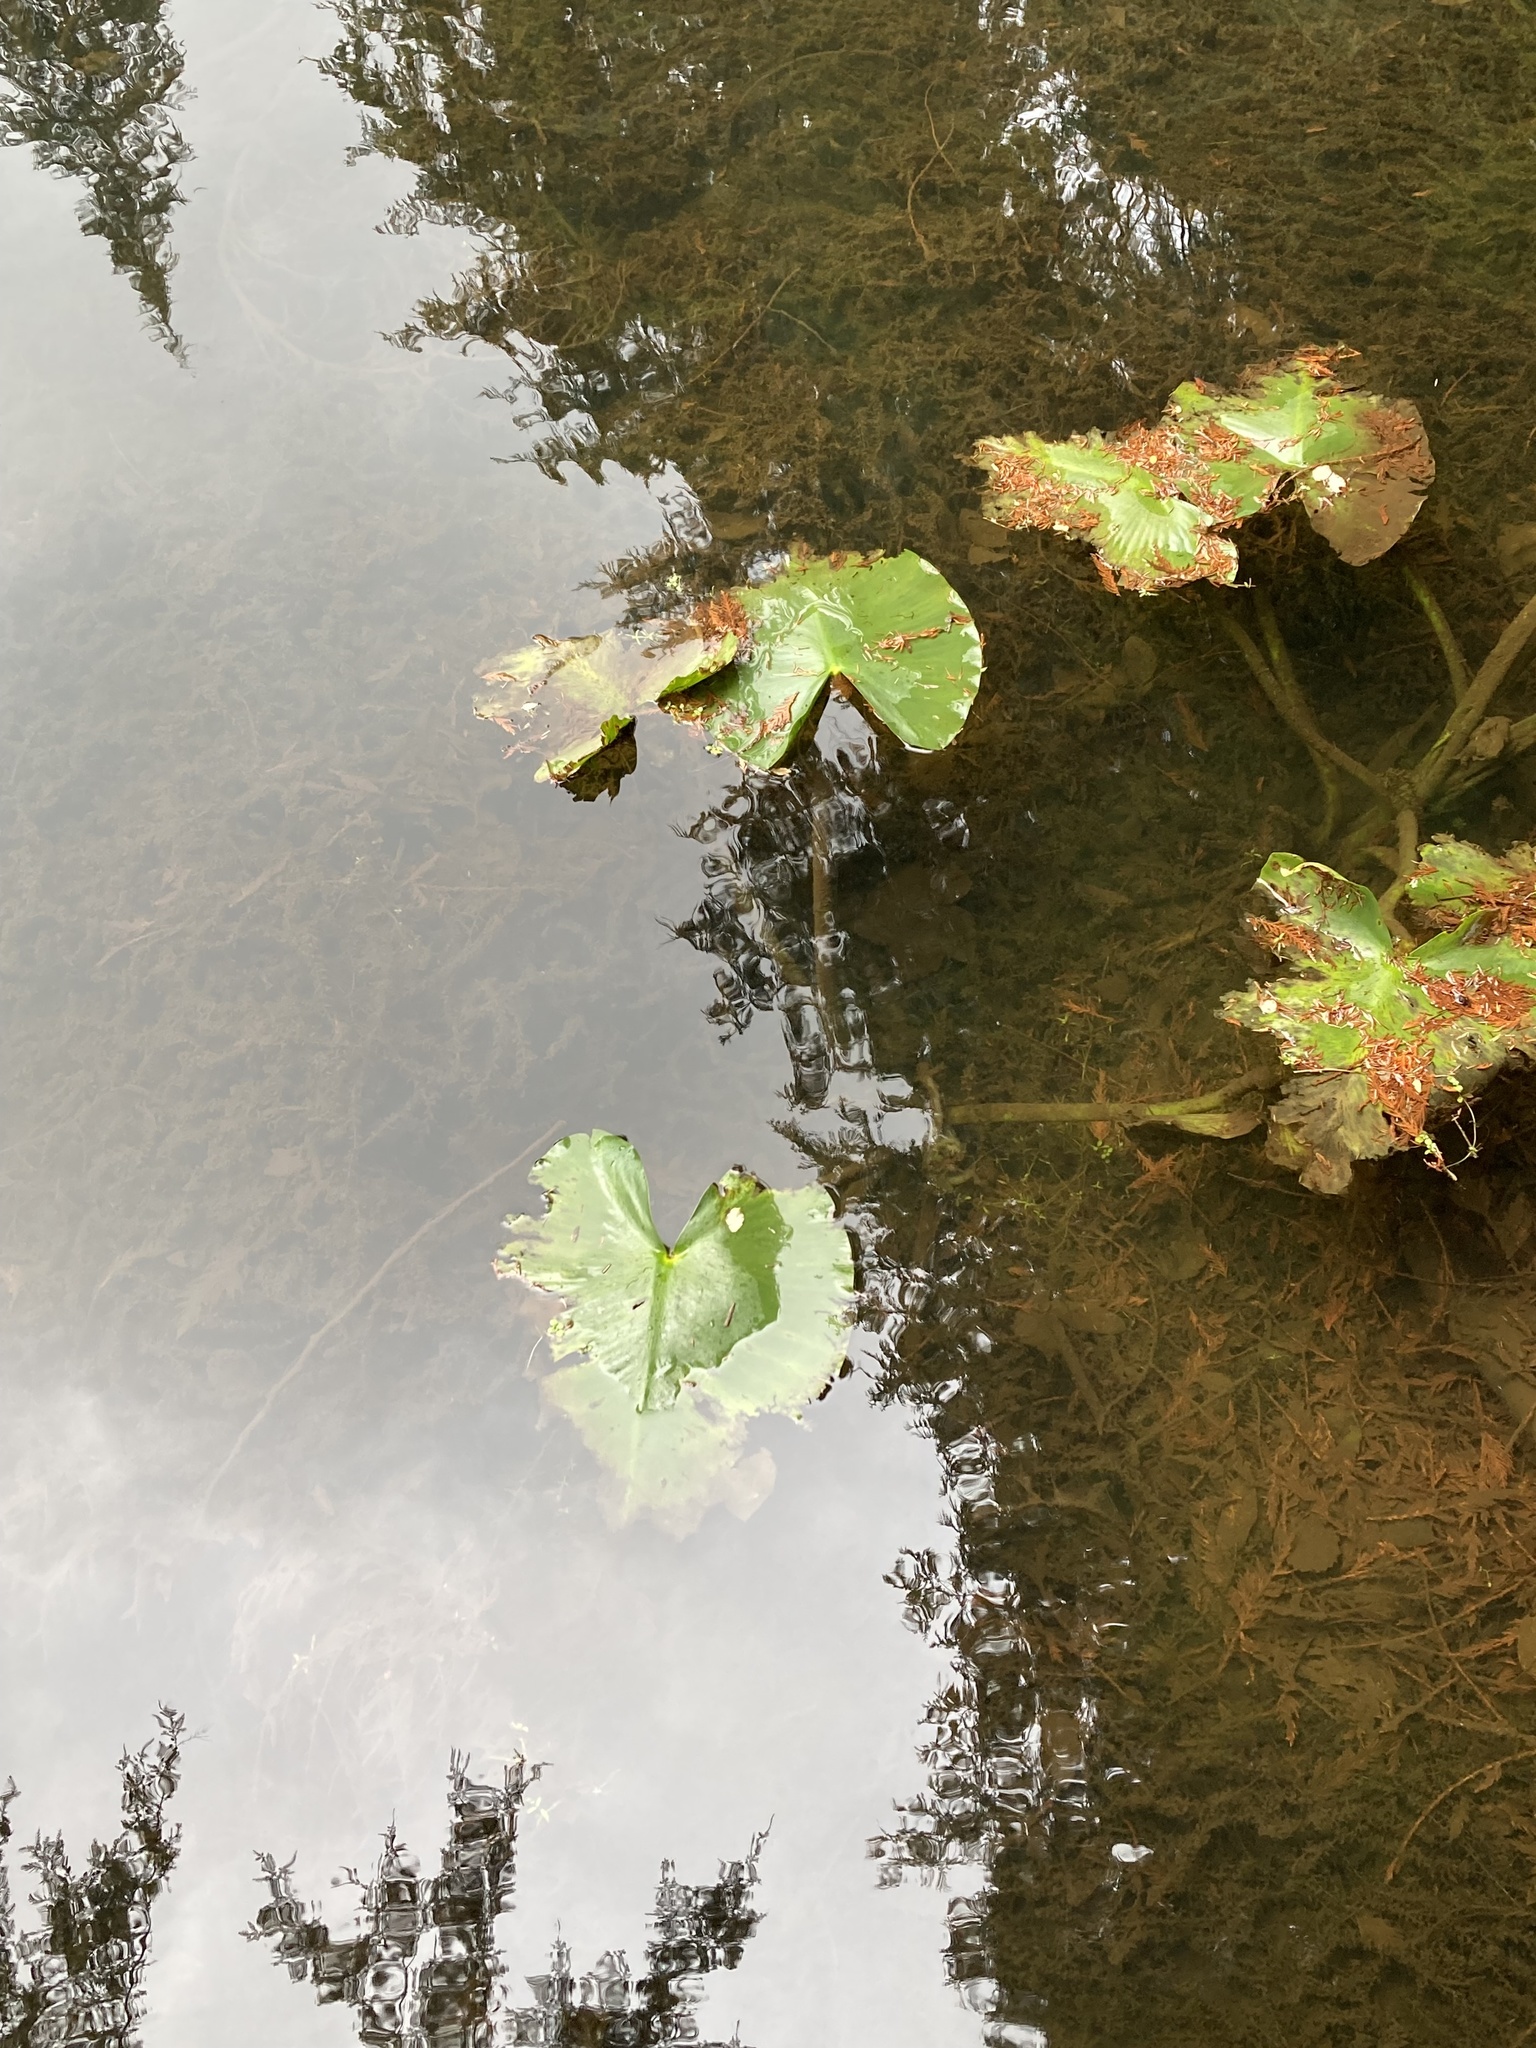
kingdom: Plantae
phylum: Tracheophyta
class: Magnoliopsida
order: Nymphaeales
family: Nymphaeaceae
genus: Nuphar
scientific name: Nuphar polysepala
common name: Rocky mountain cow-lily
